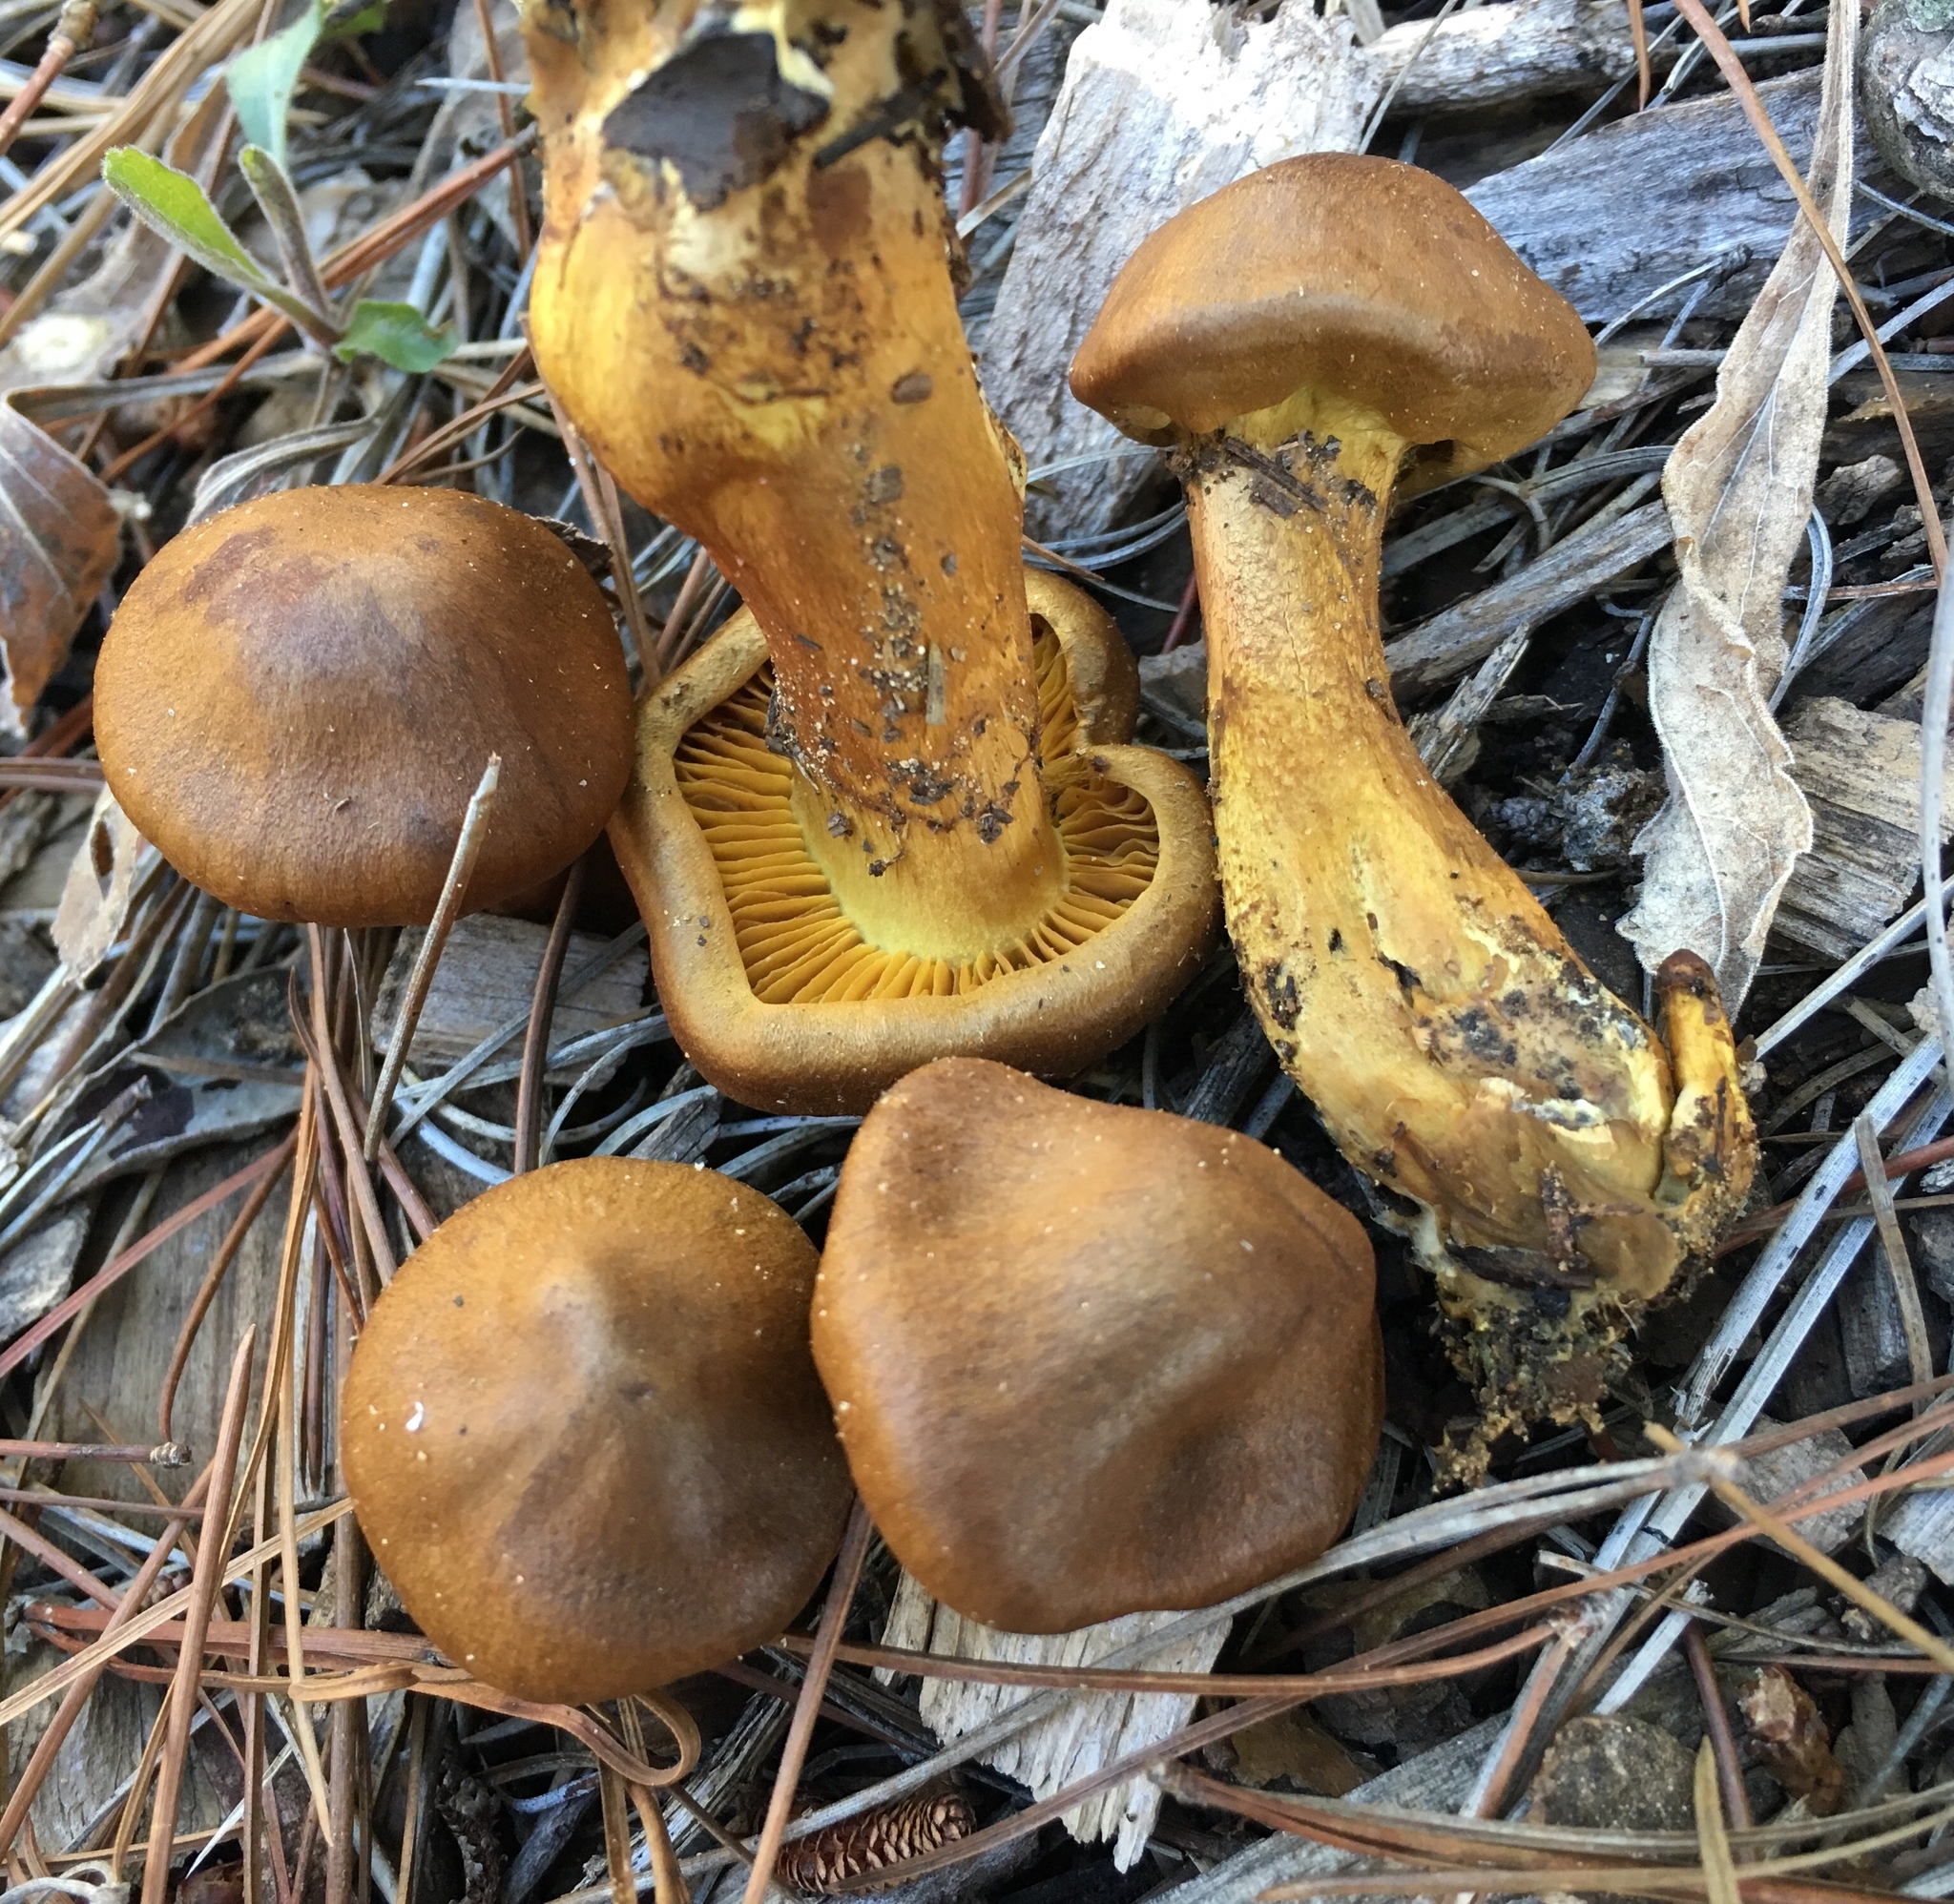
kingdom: Fungi
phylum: Basidiomycota
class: Agaricomycetes
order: Agaricales
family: Cortinariaceae
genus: Cortinarius
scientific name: Cortinarius thiersii
